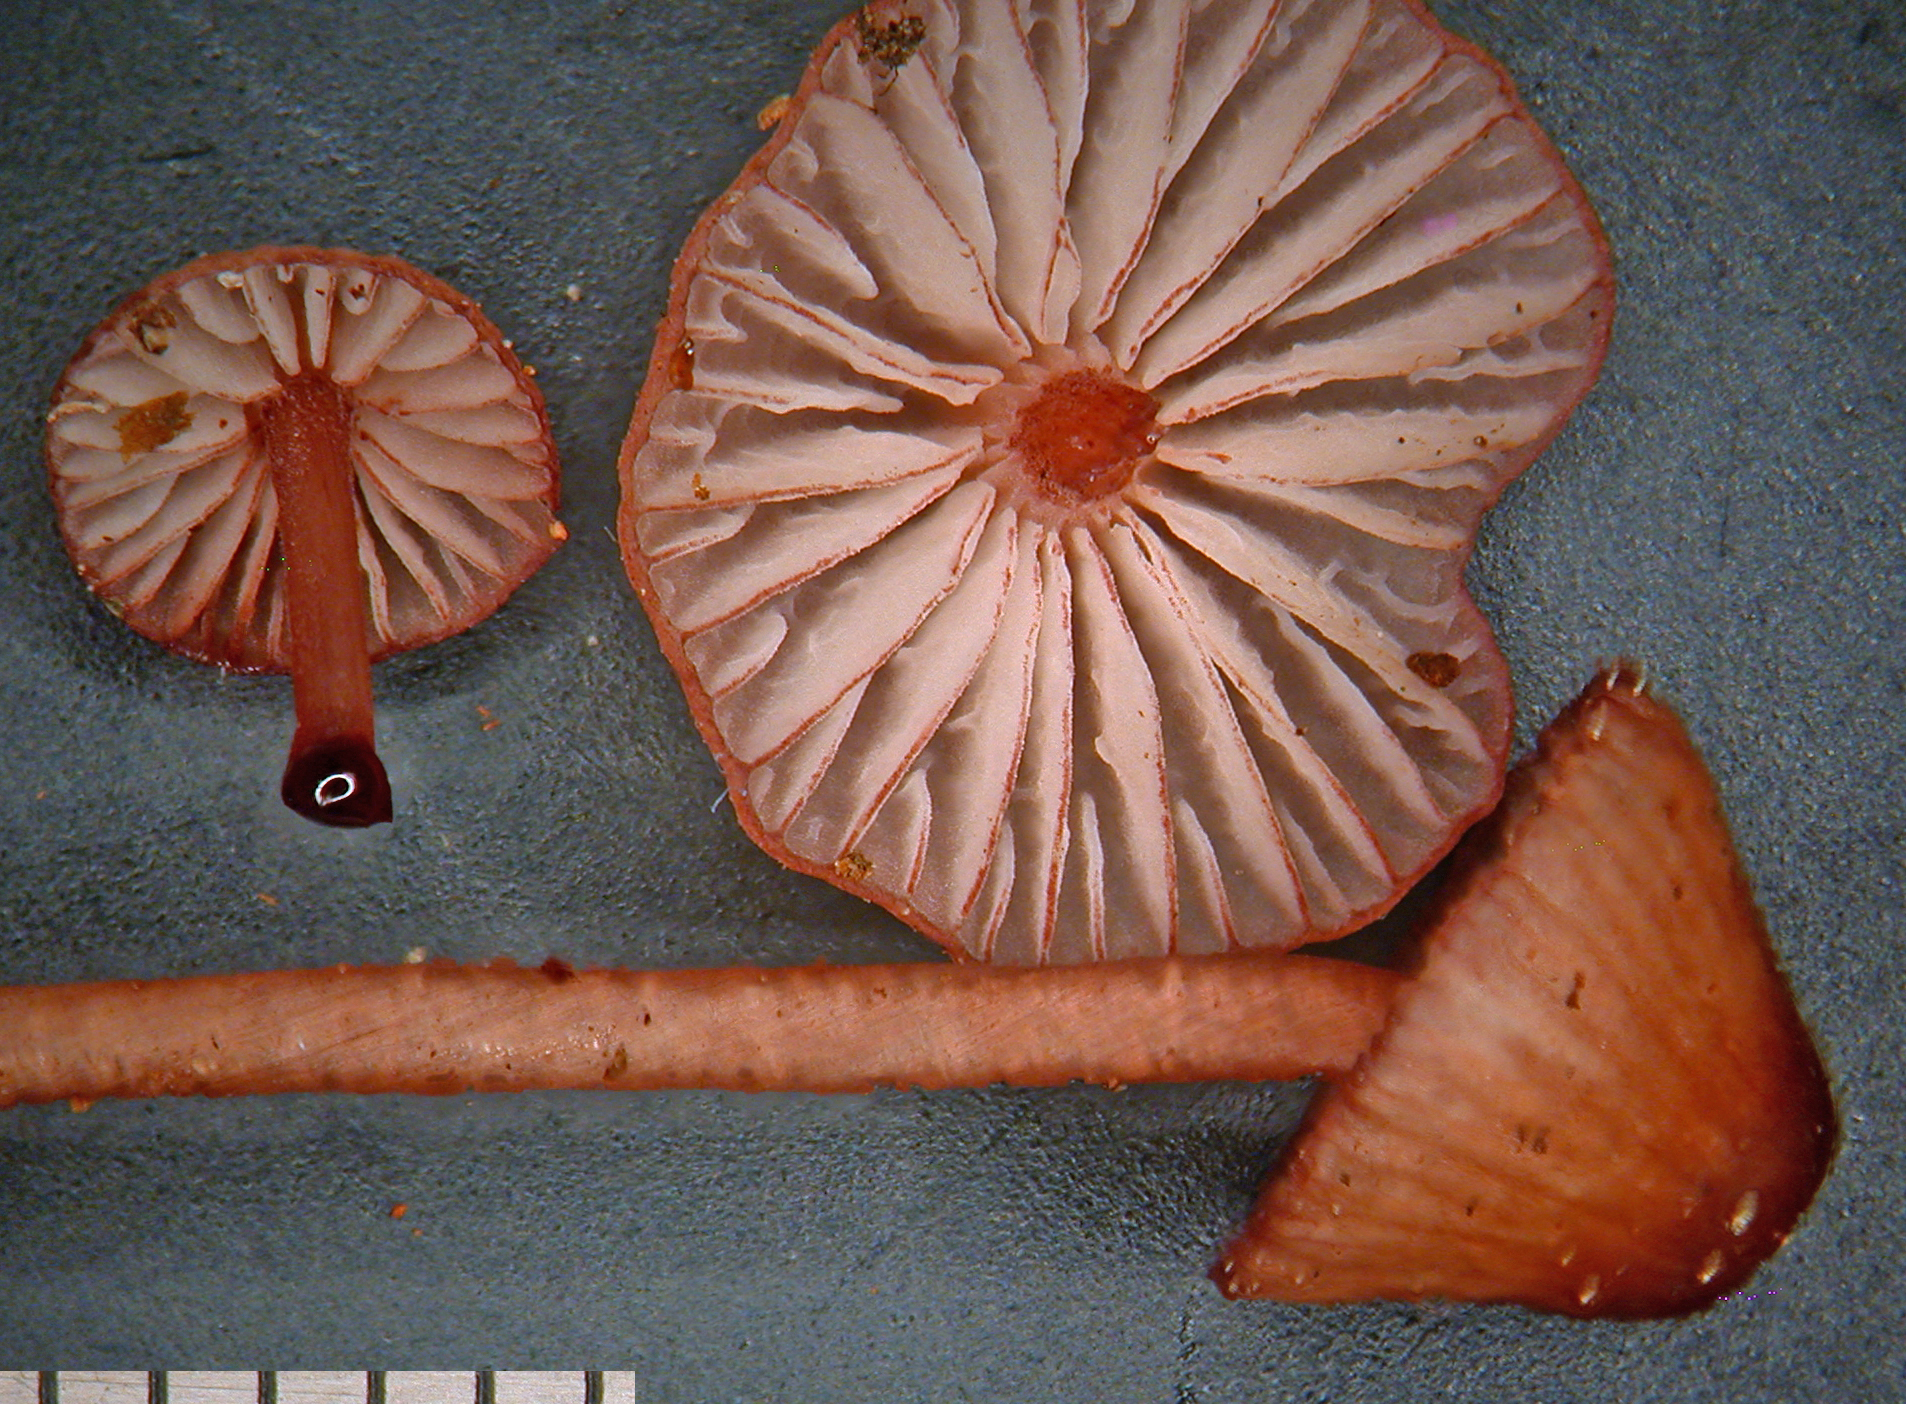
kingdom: Fungi
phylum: Basidiomycota
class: Agaricomycetes
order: Agaricales
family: Mycenaceae
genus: Mycena
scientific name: Mycena sanguinolenta
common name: Bleeding bonnet
